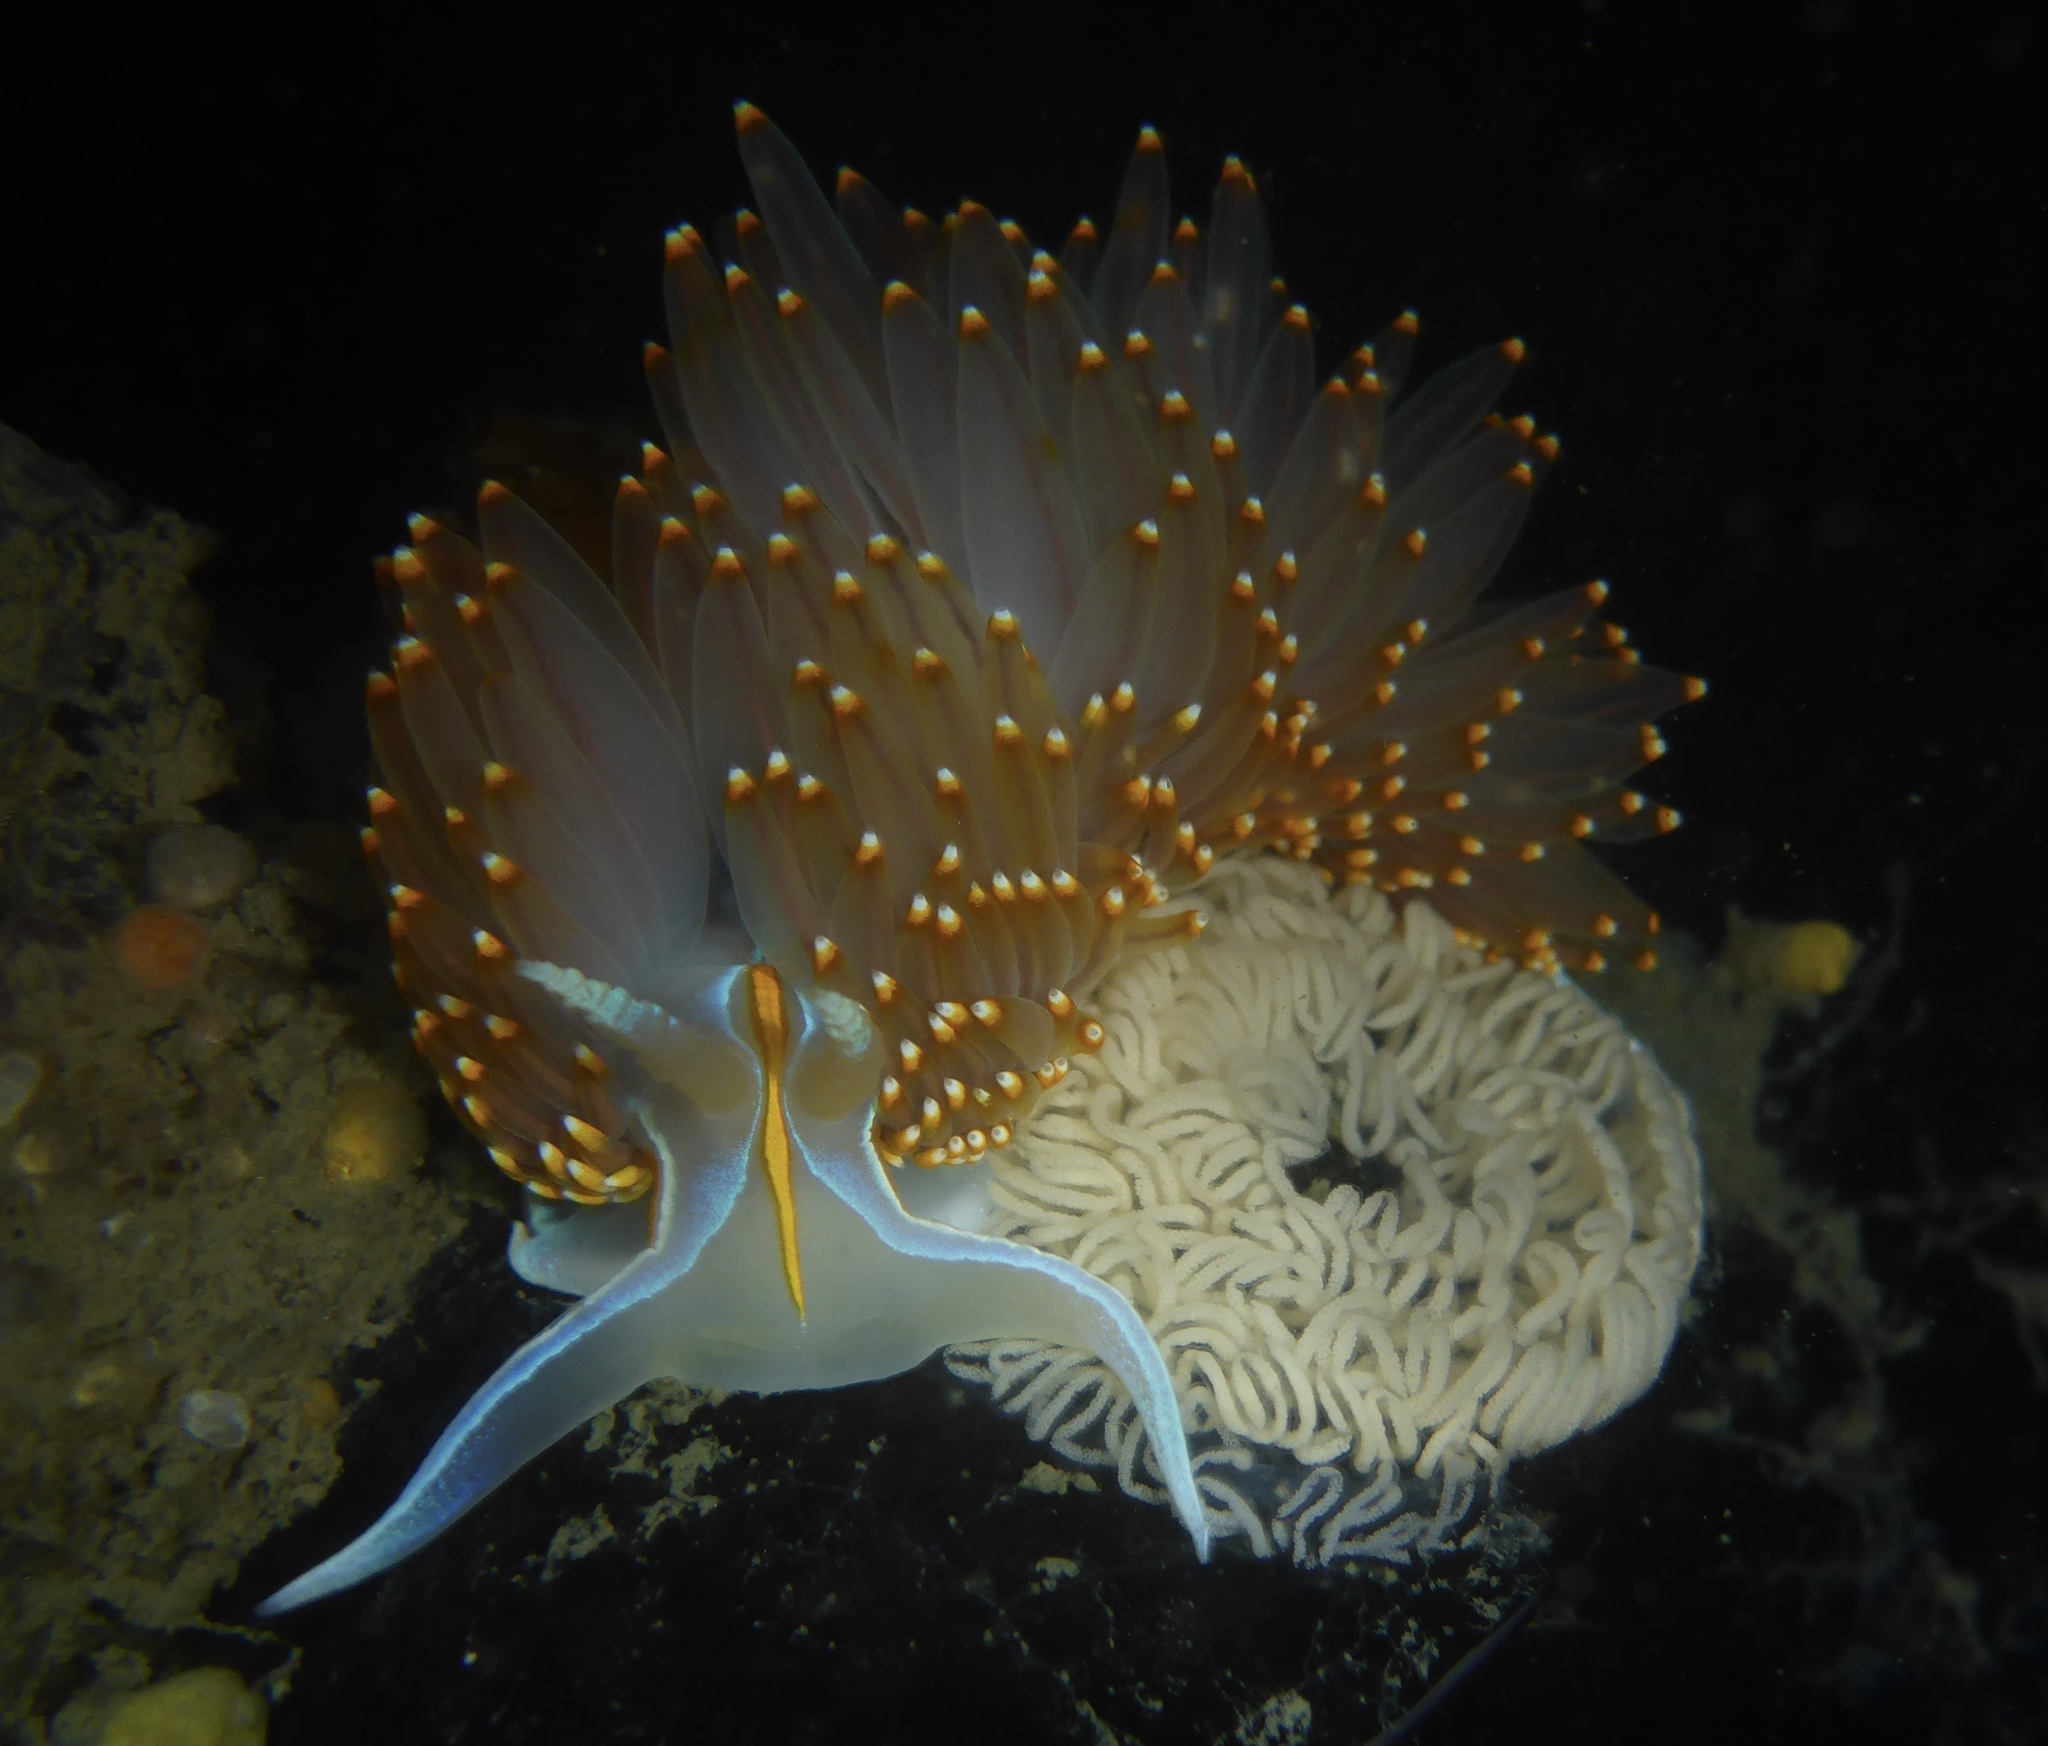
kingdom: Animalia
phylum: Mollusca
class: Gastropoda
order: Nudibranchia
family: Myrrhinidae
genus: Hermissenda
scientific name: Hermissenda opalescens
